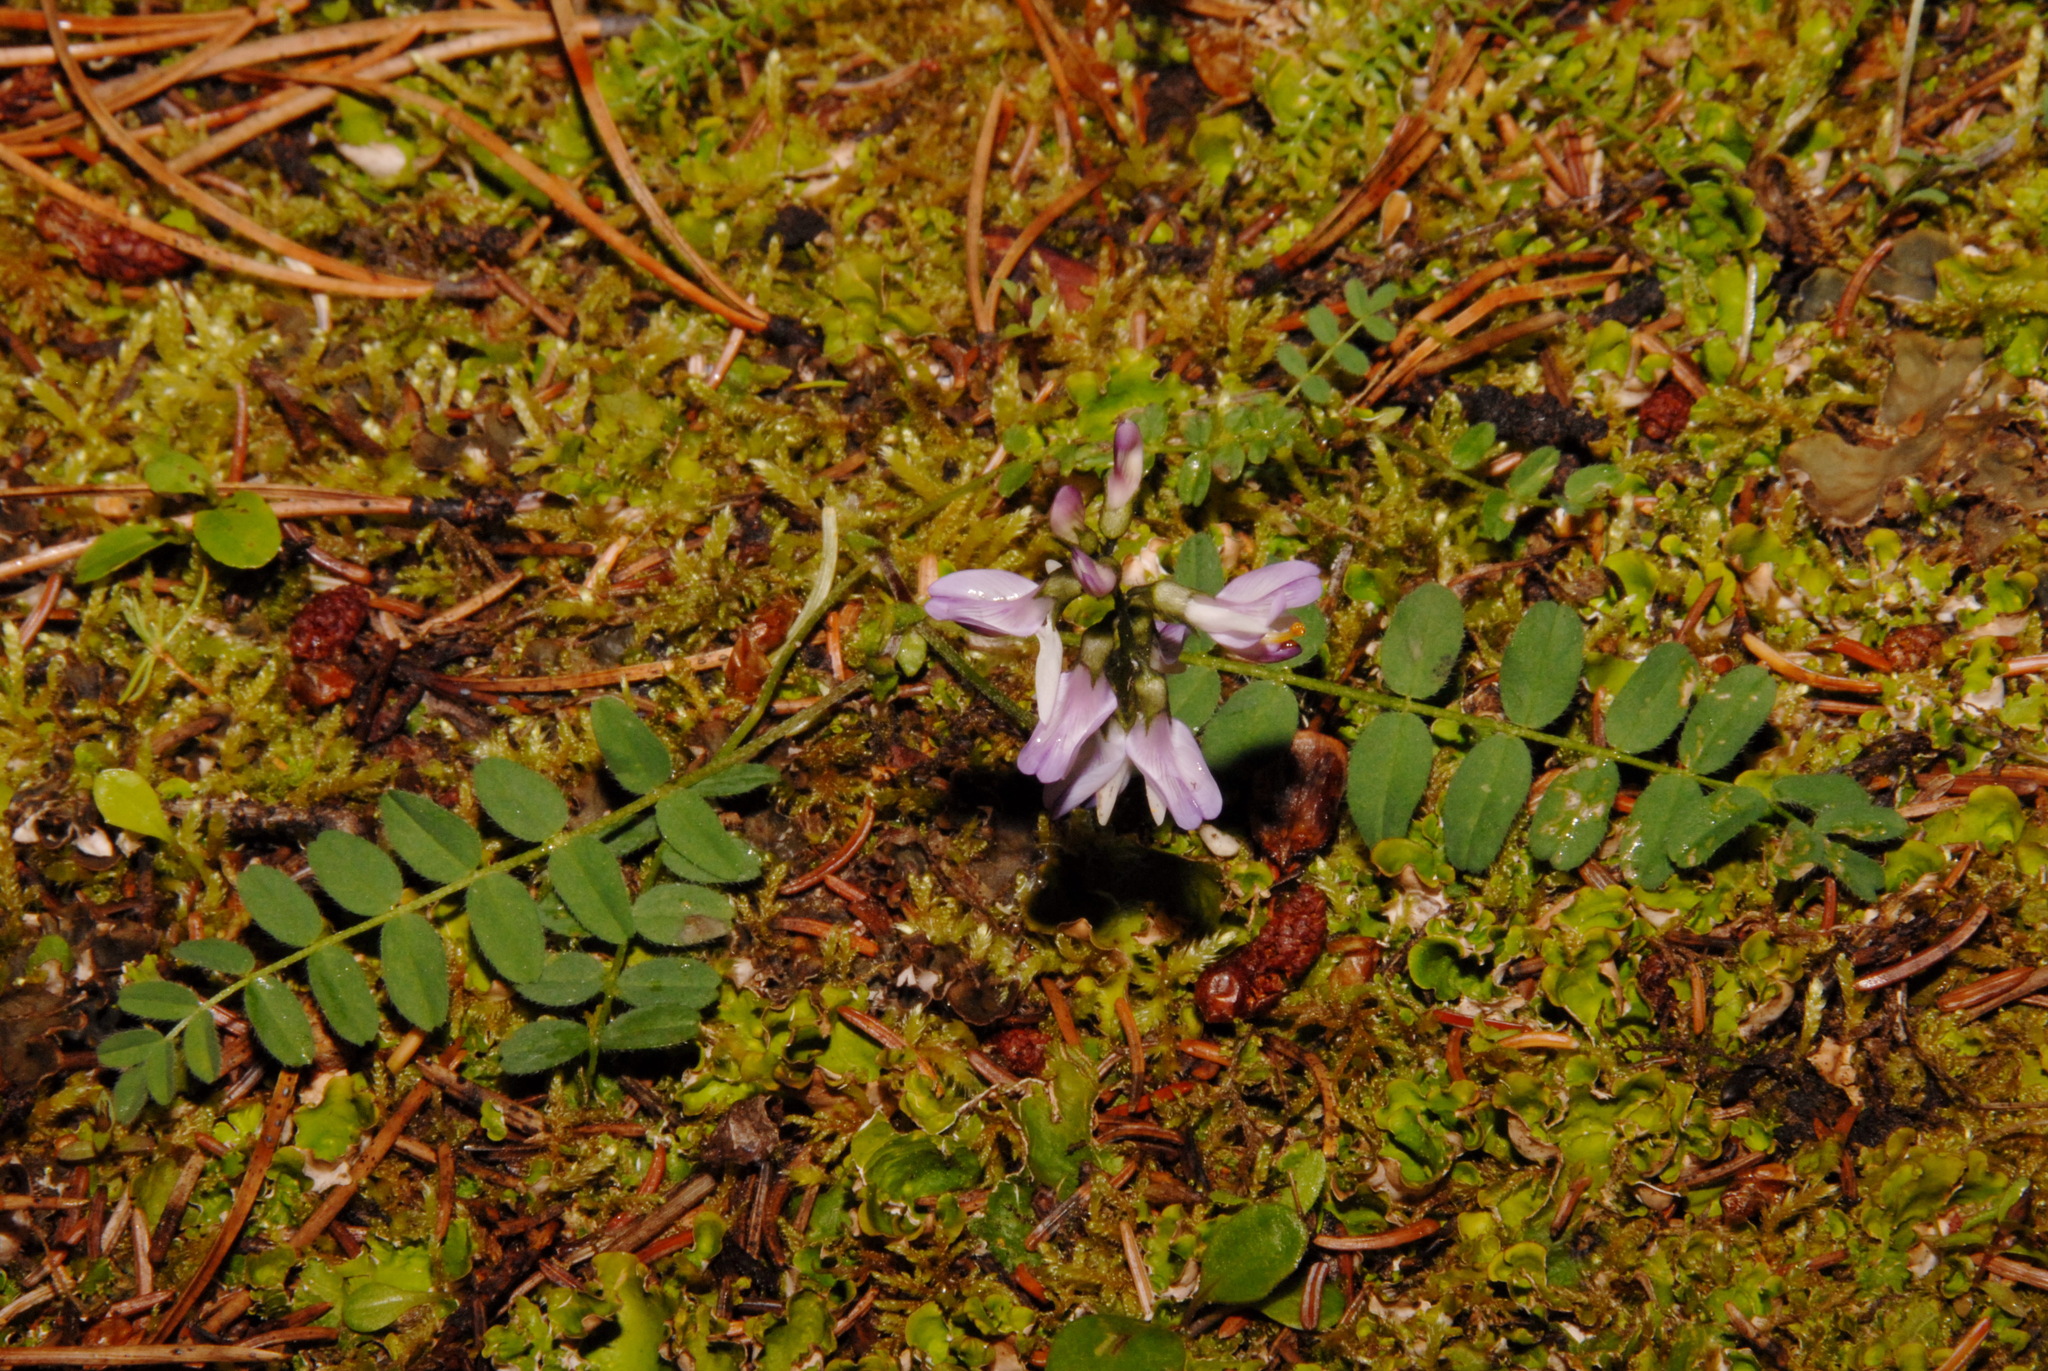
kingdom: Plantae
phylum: Tracheophyta
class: Magnoliopsida
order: Fabales
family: Fabaceae
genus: Astragalus
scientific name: Astragalus alpinus
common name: Alpine milk-vetch
